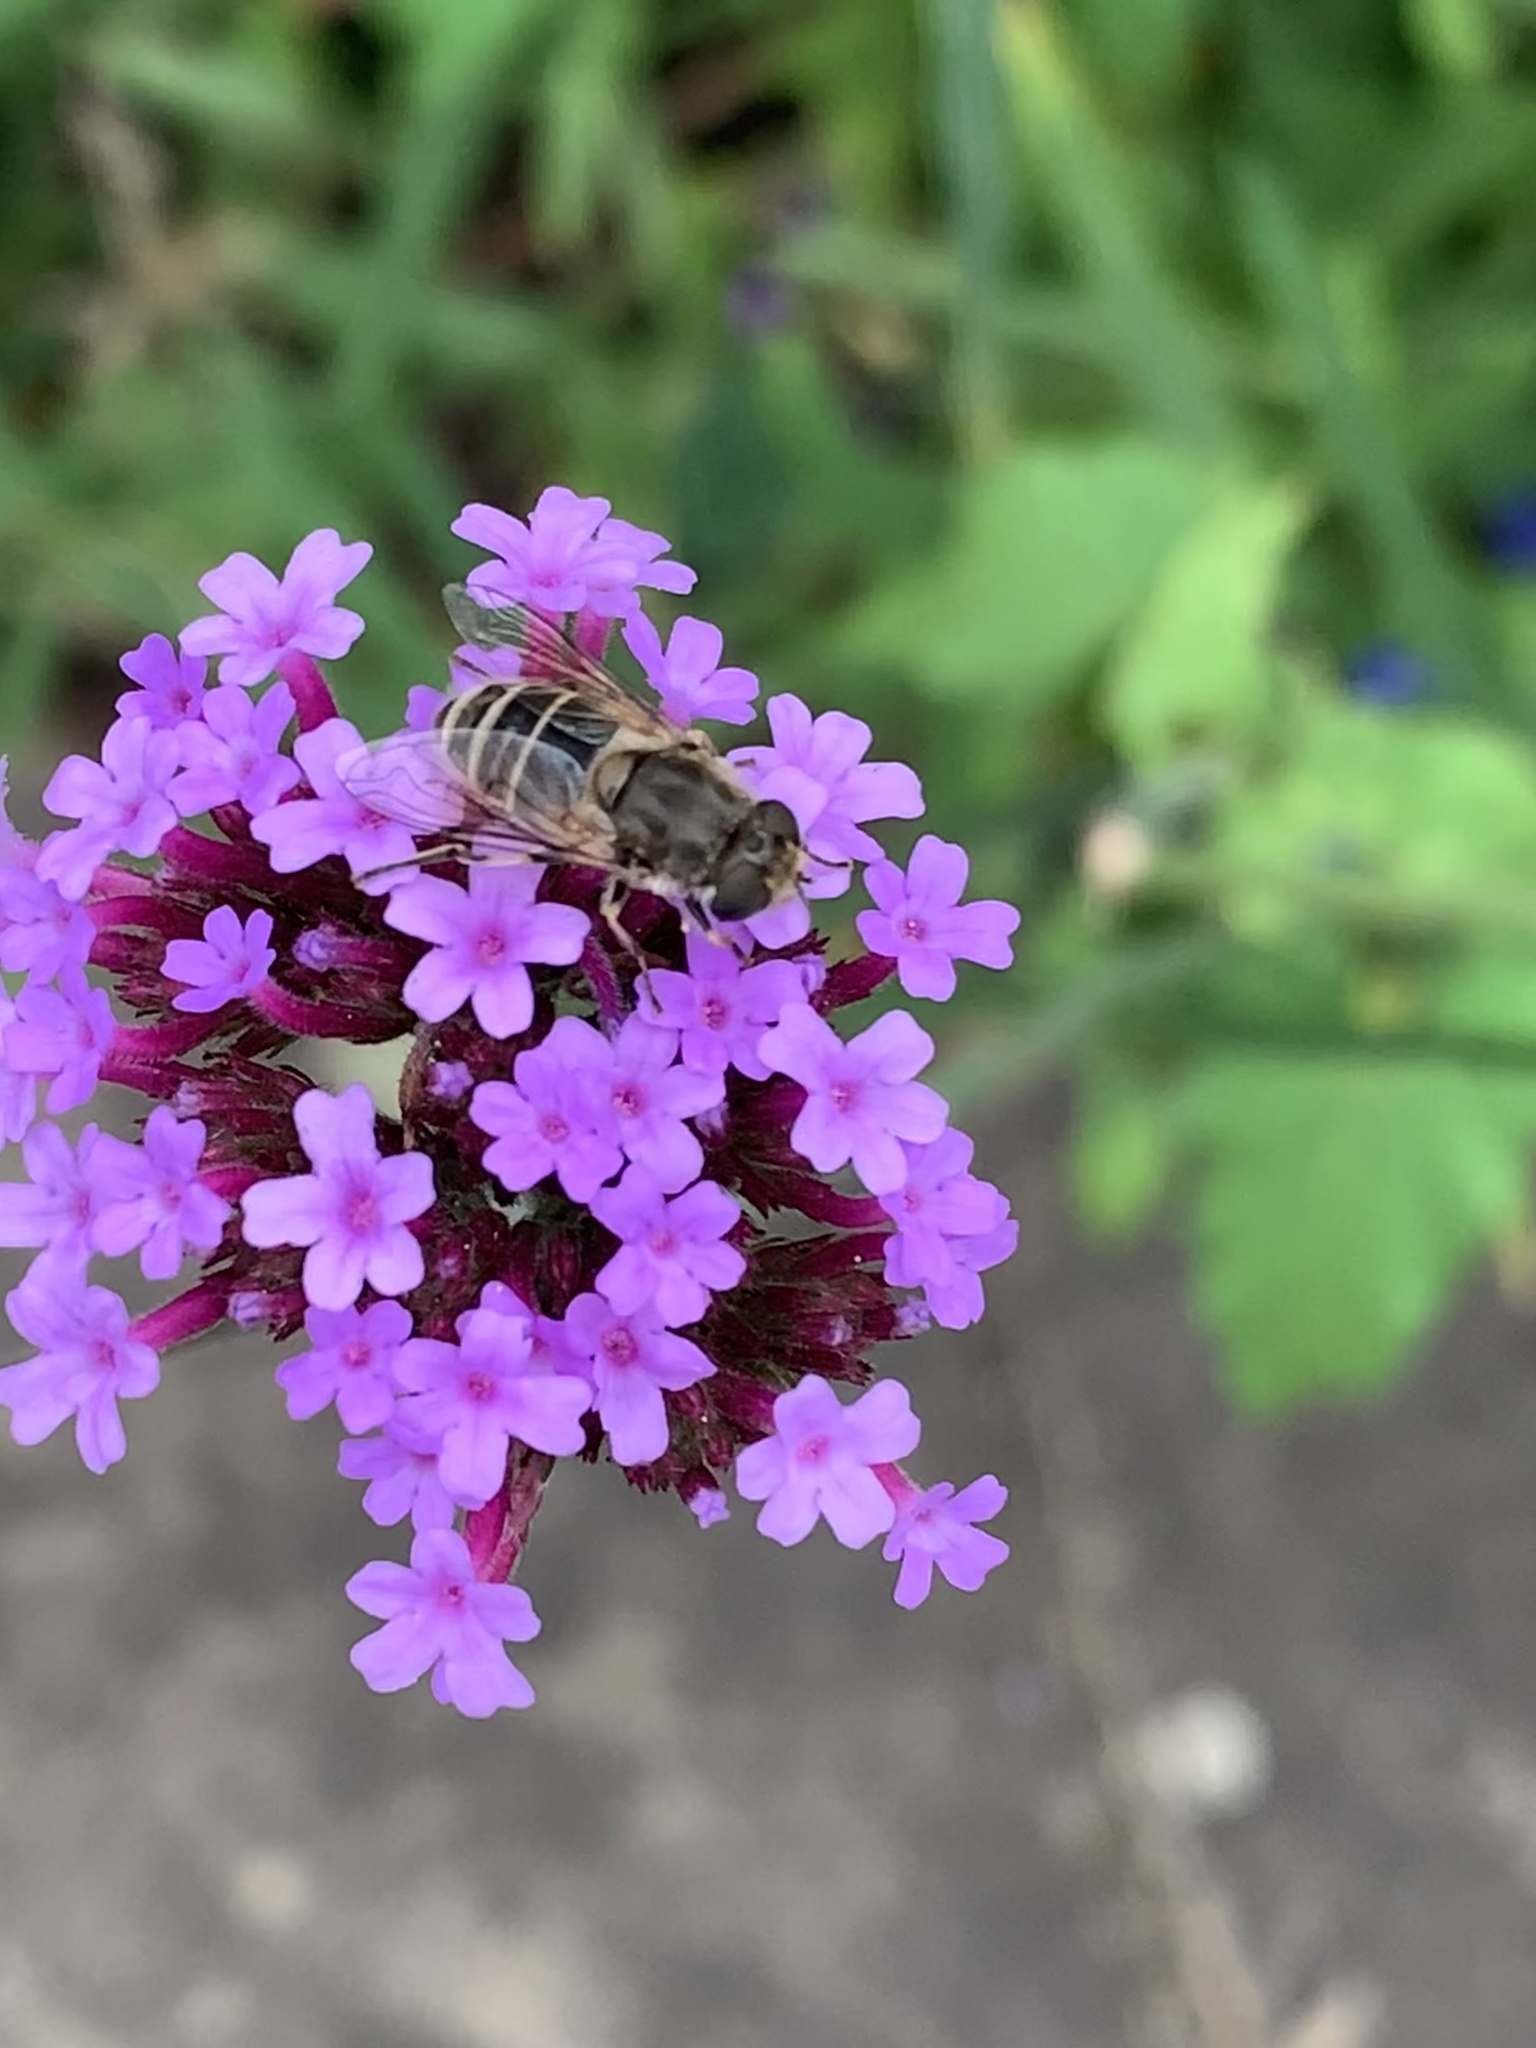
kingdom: Animalia
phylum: Arthropoda
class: Insecta
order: Diptera
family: Syrphidae
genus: Eristalis
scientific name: Eristalis arbustorum
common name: Hover fly
